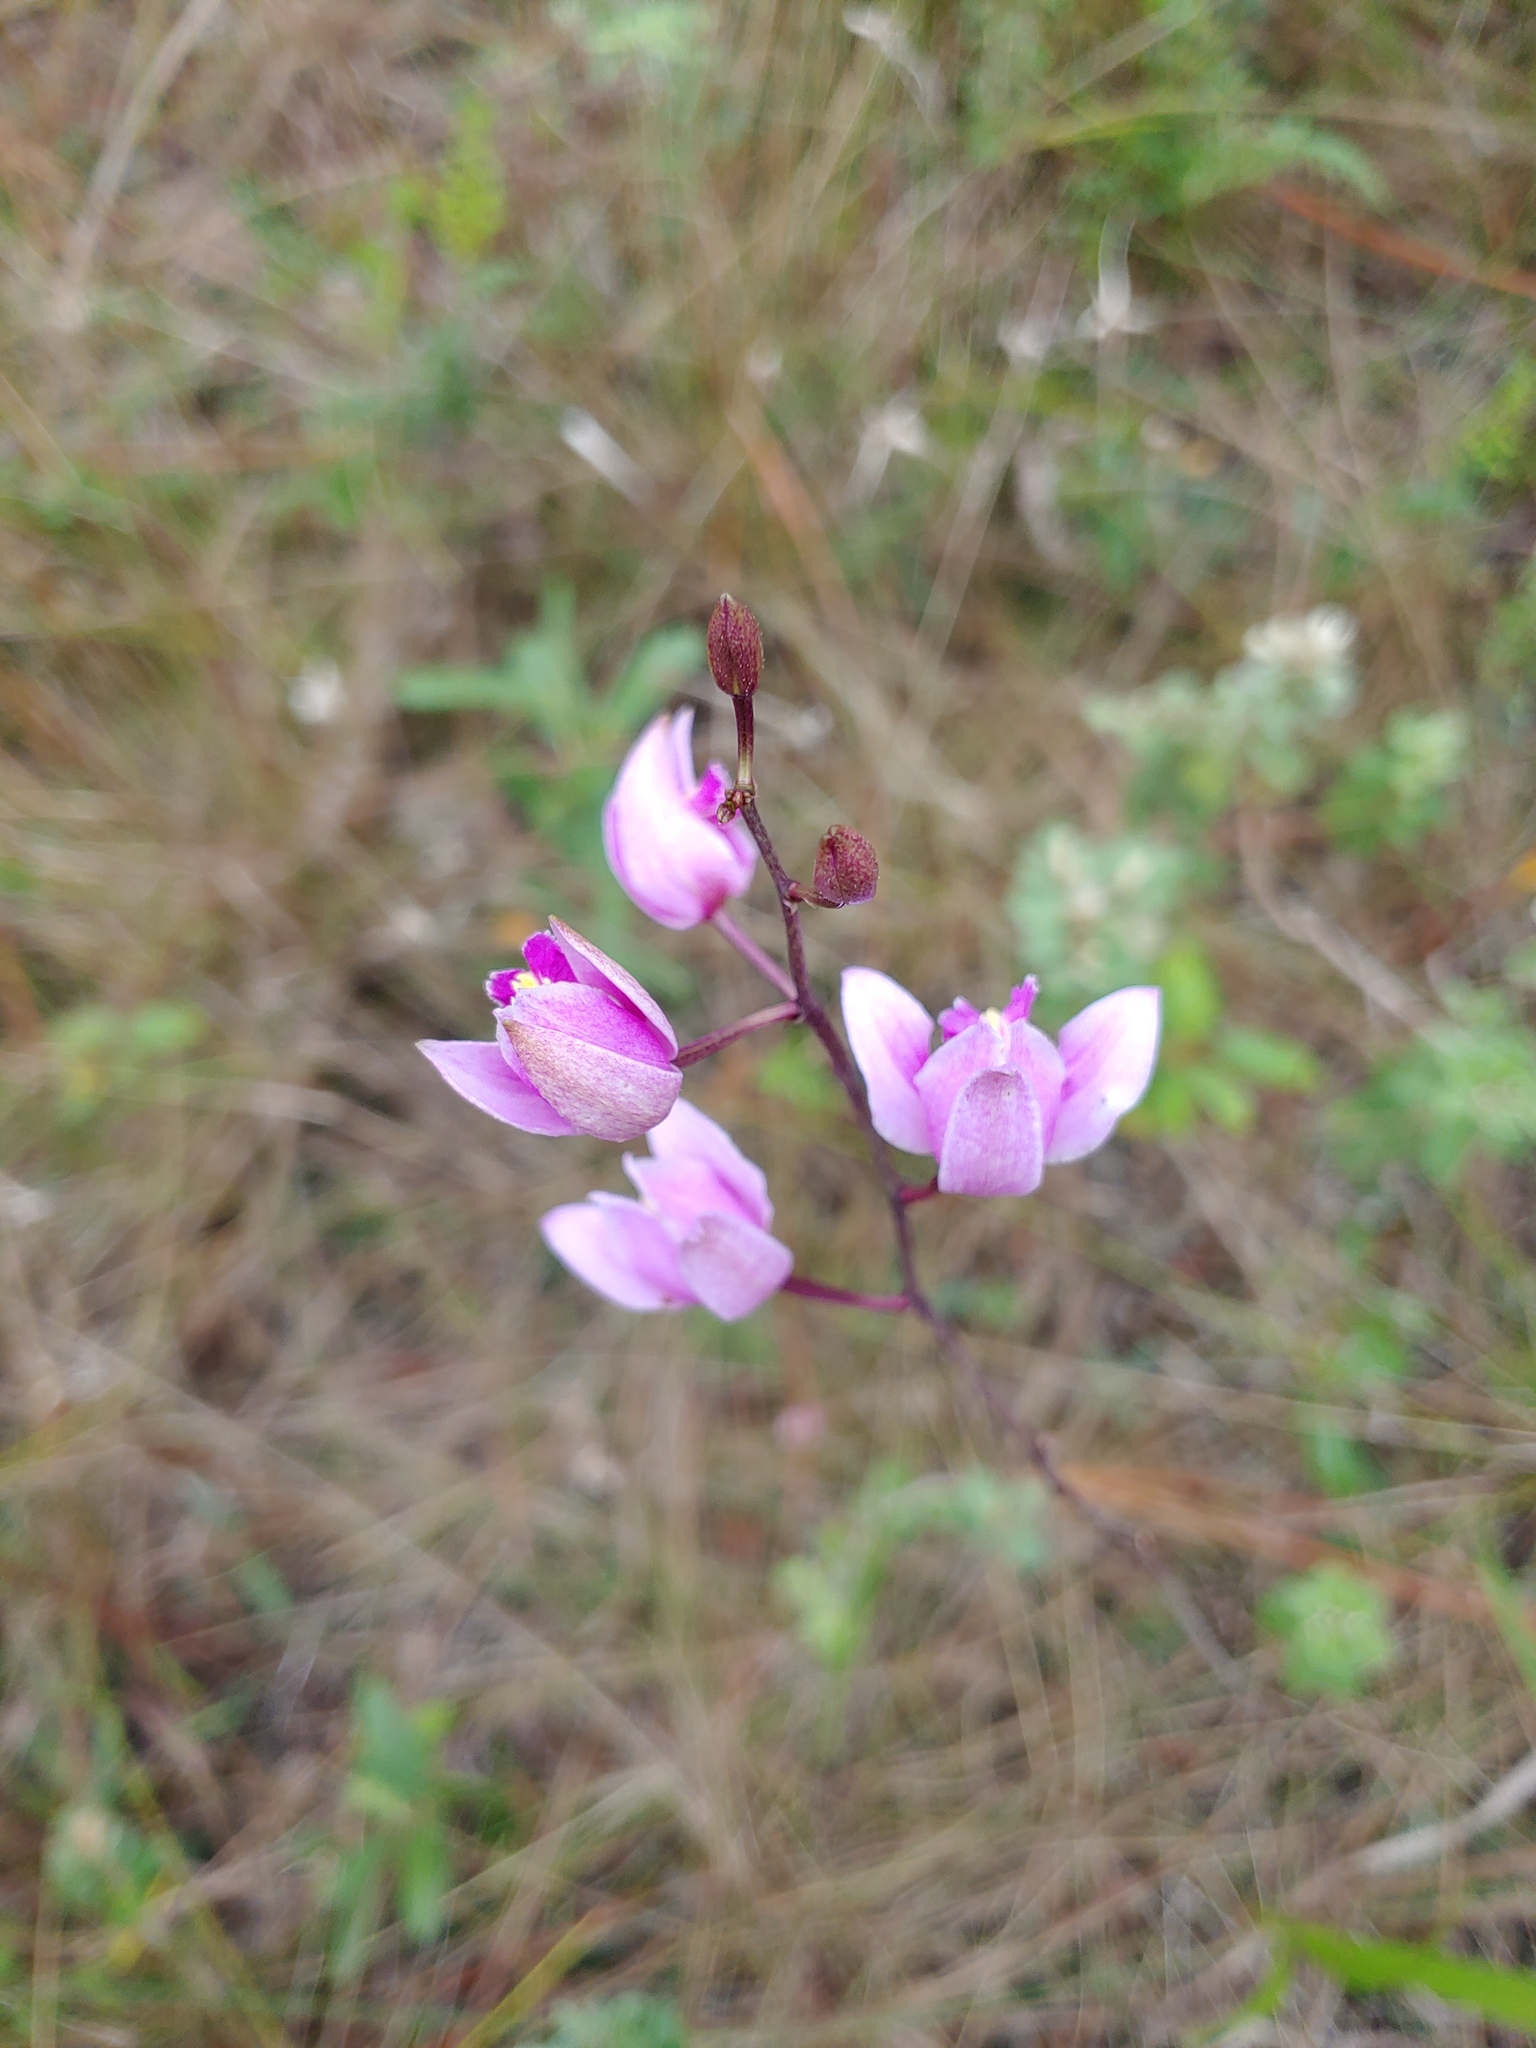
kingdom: Plantae
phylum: Tracheophyta
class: Liliopsida
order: Asparagales
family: Orchidaceae
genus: Bletia
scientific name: Bletia purpurea
